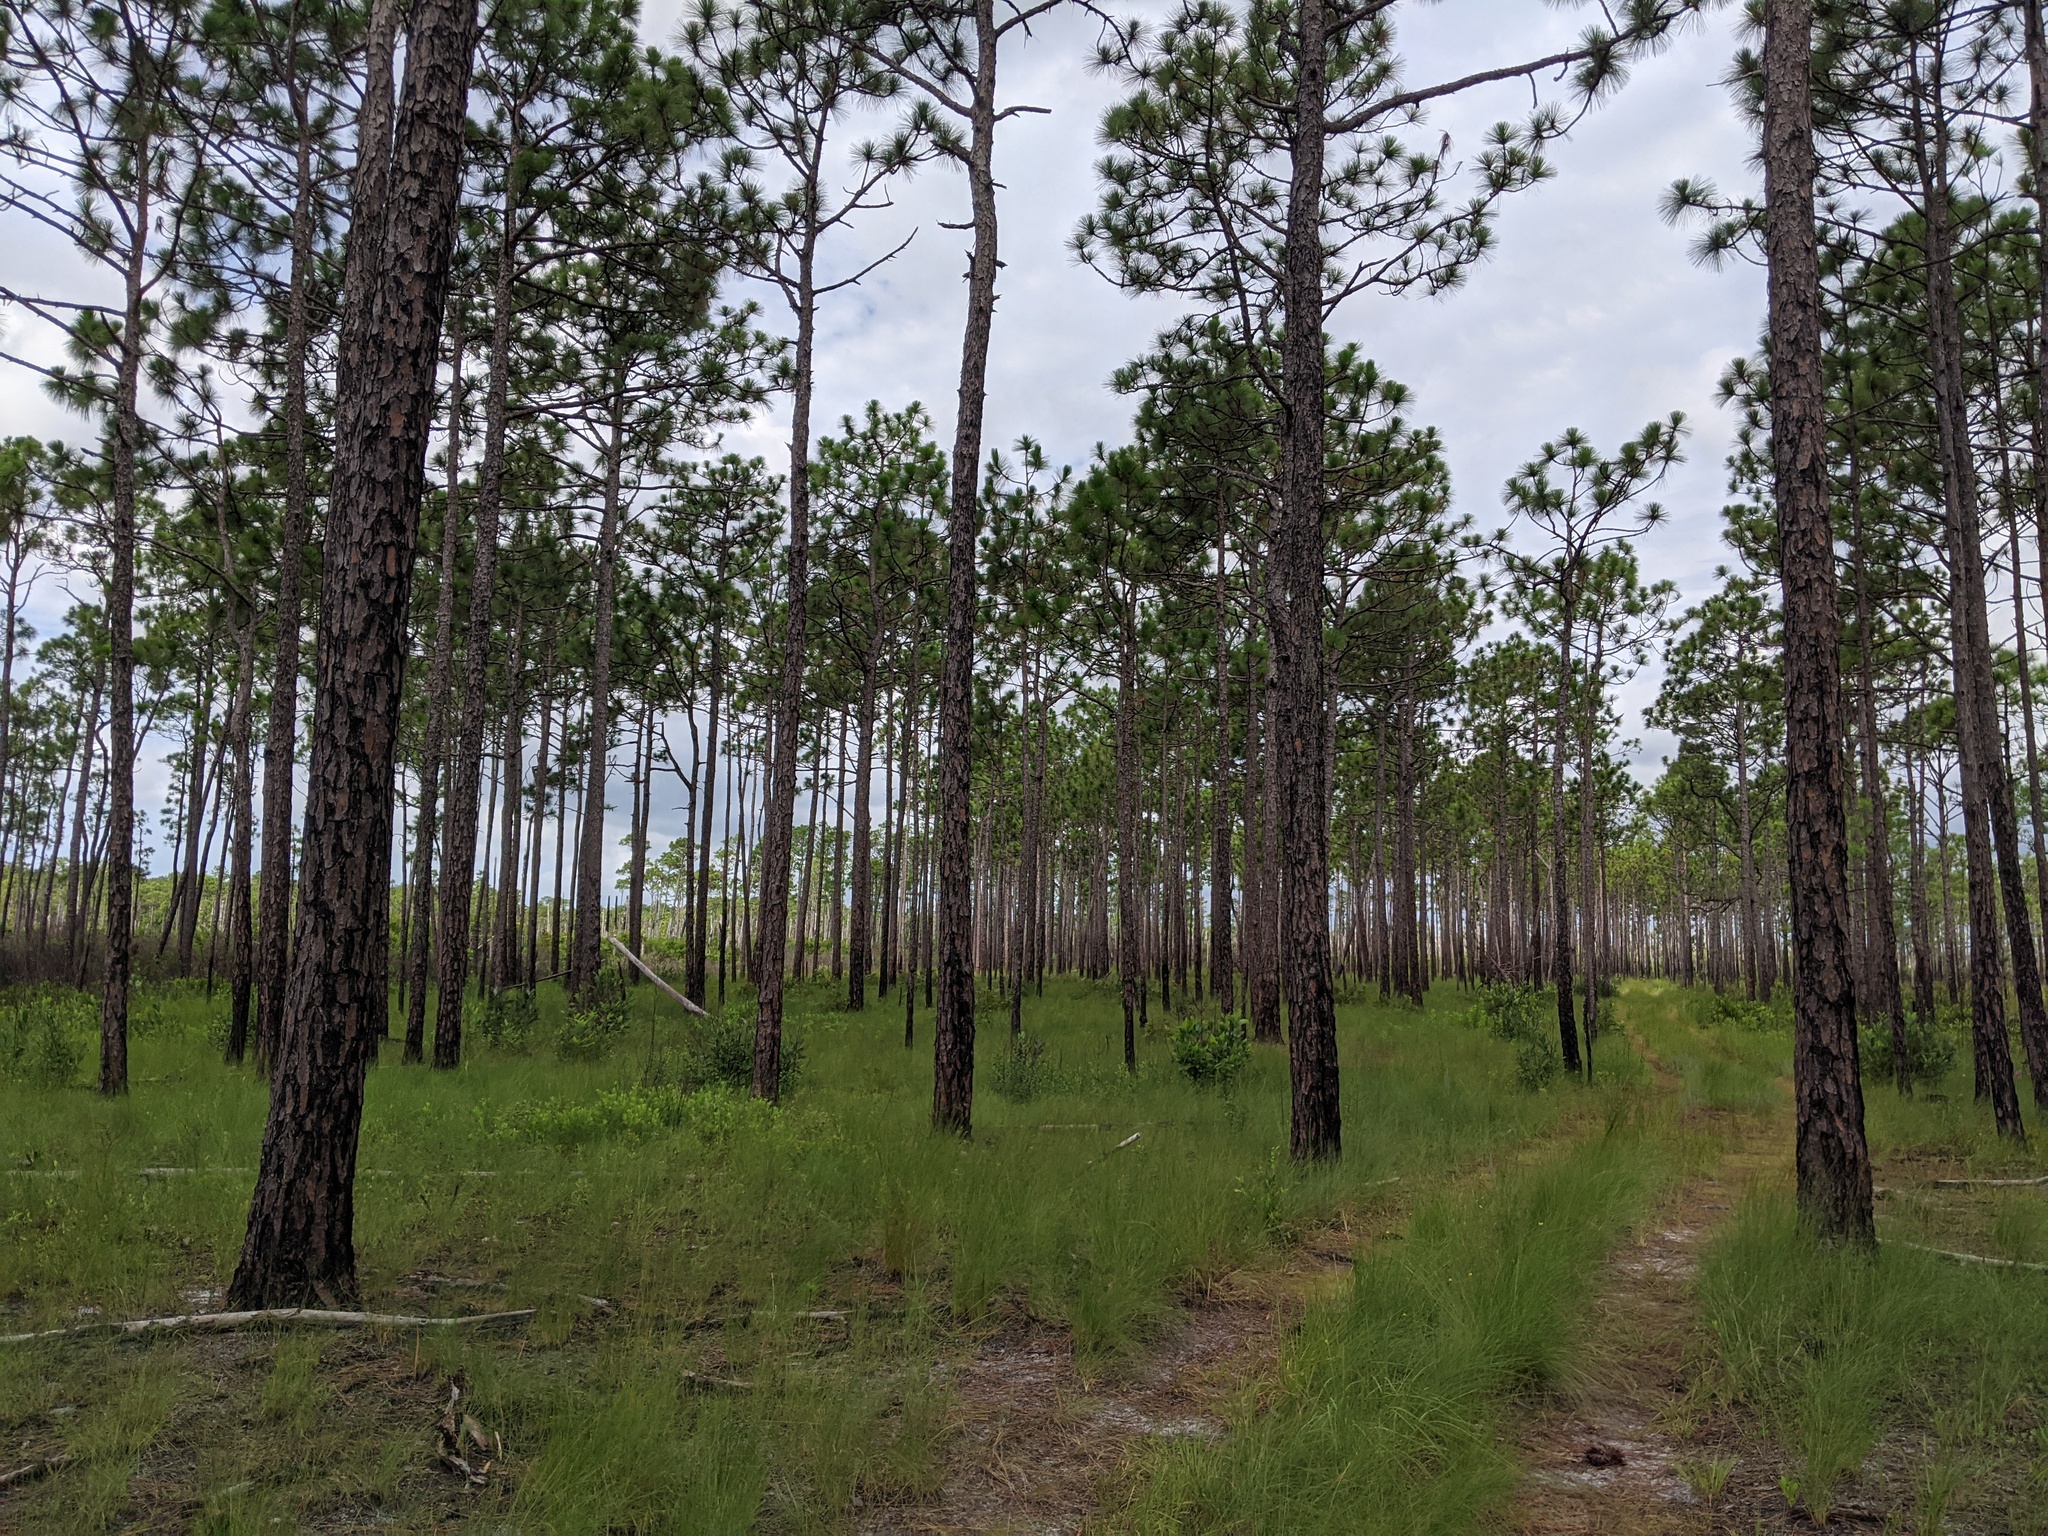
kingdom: Plantae
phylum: Tracheophyta
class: Pinopsida
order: Pinales
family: Pinaceae
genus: Pinus
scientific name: Pinus palustris
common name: Longleaf pine
